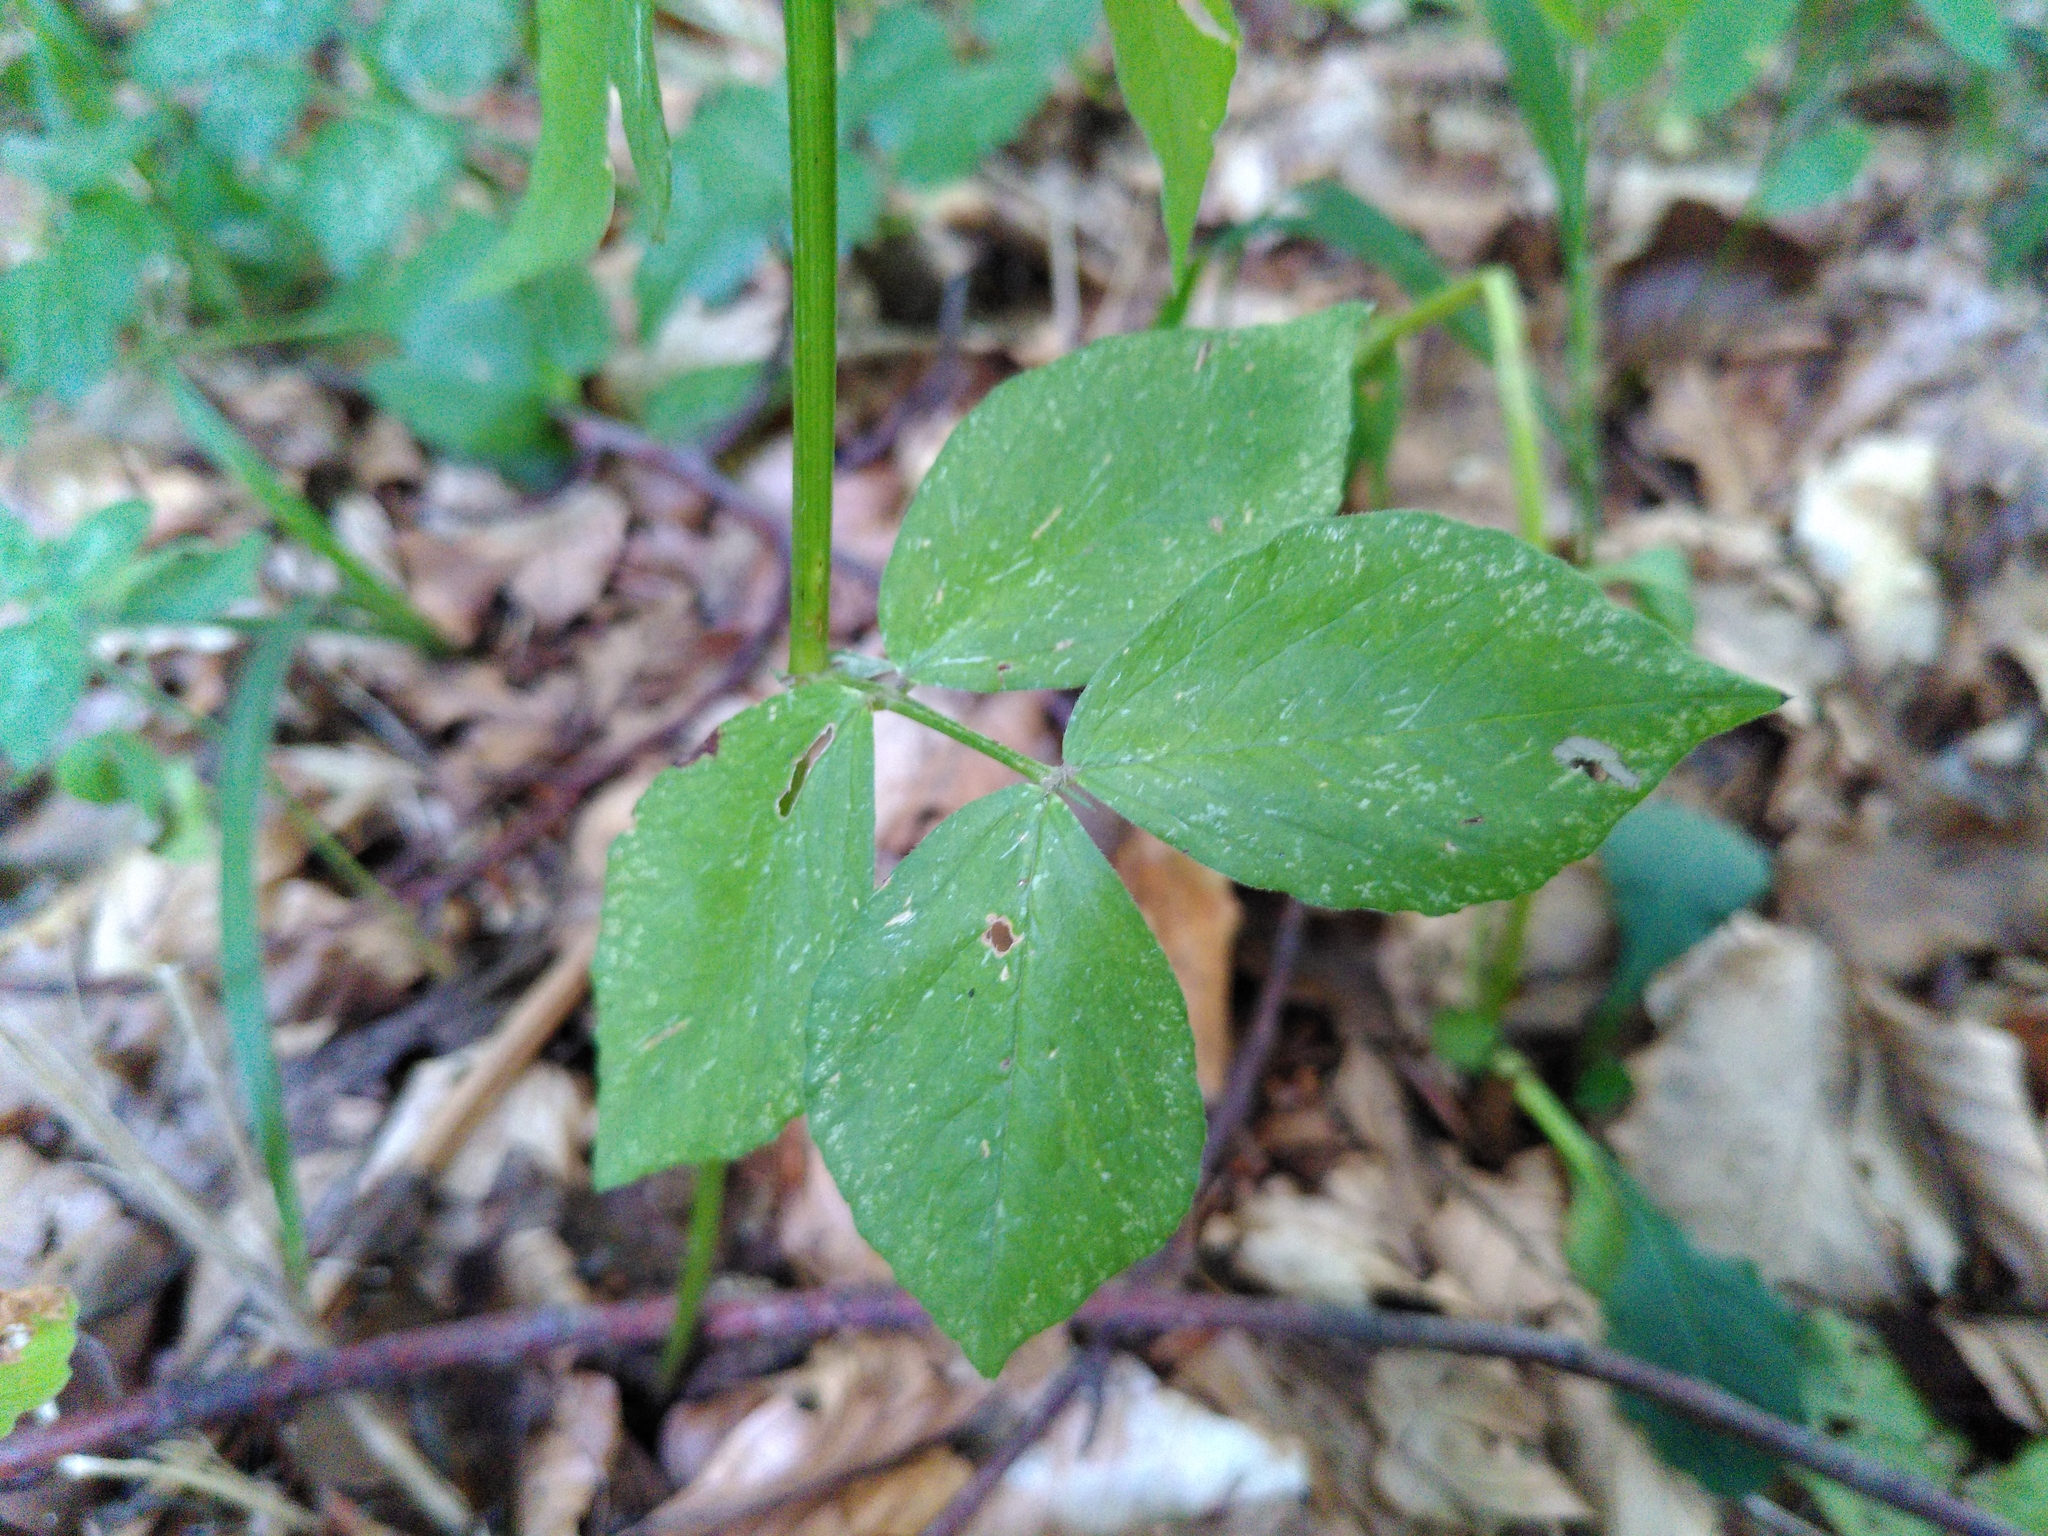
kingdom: Plantae
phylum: Tracheophyta
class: Magnoliopsida
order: Fabales
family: Fabaceae
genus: Lathyrus
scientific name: Lathyrus venetus
